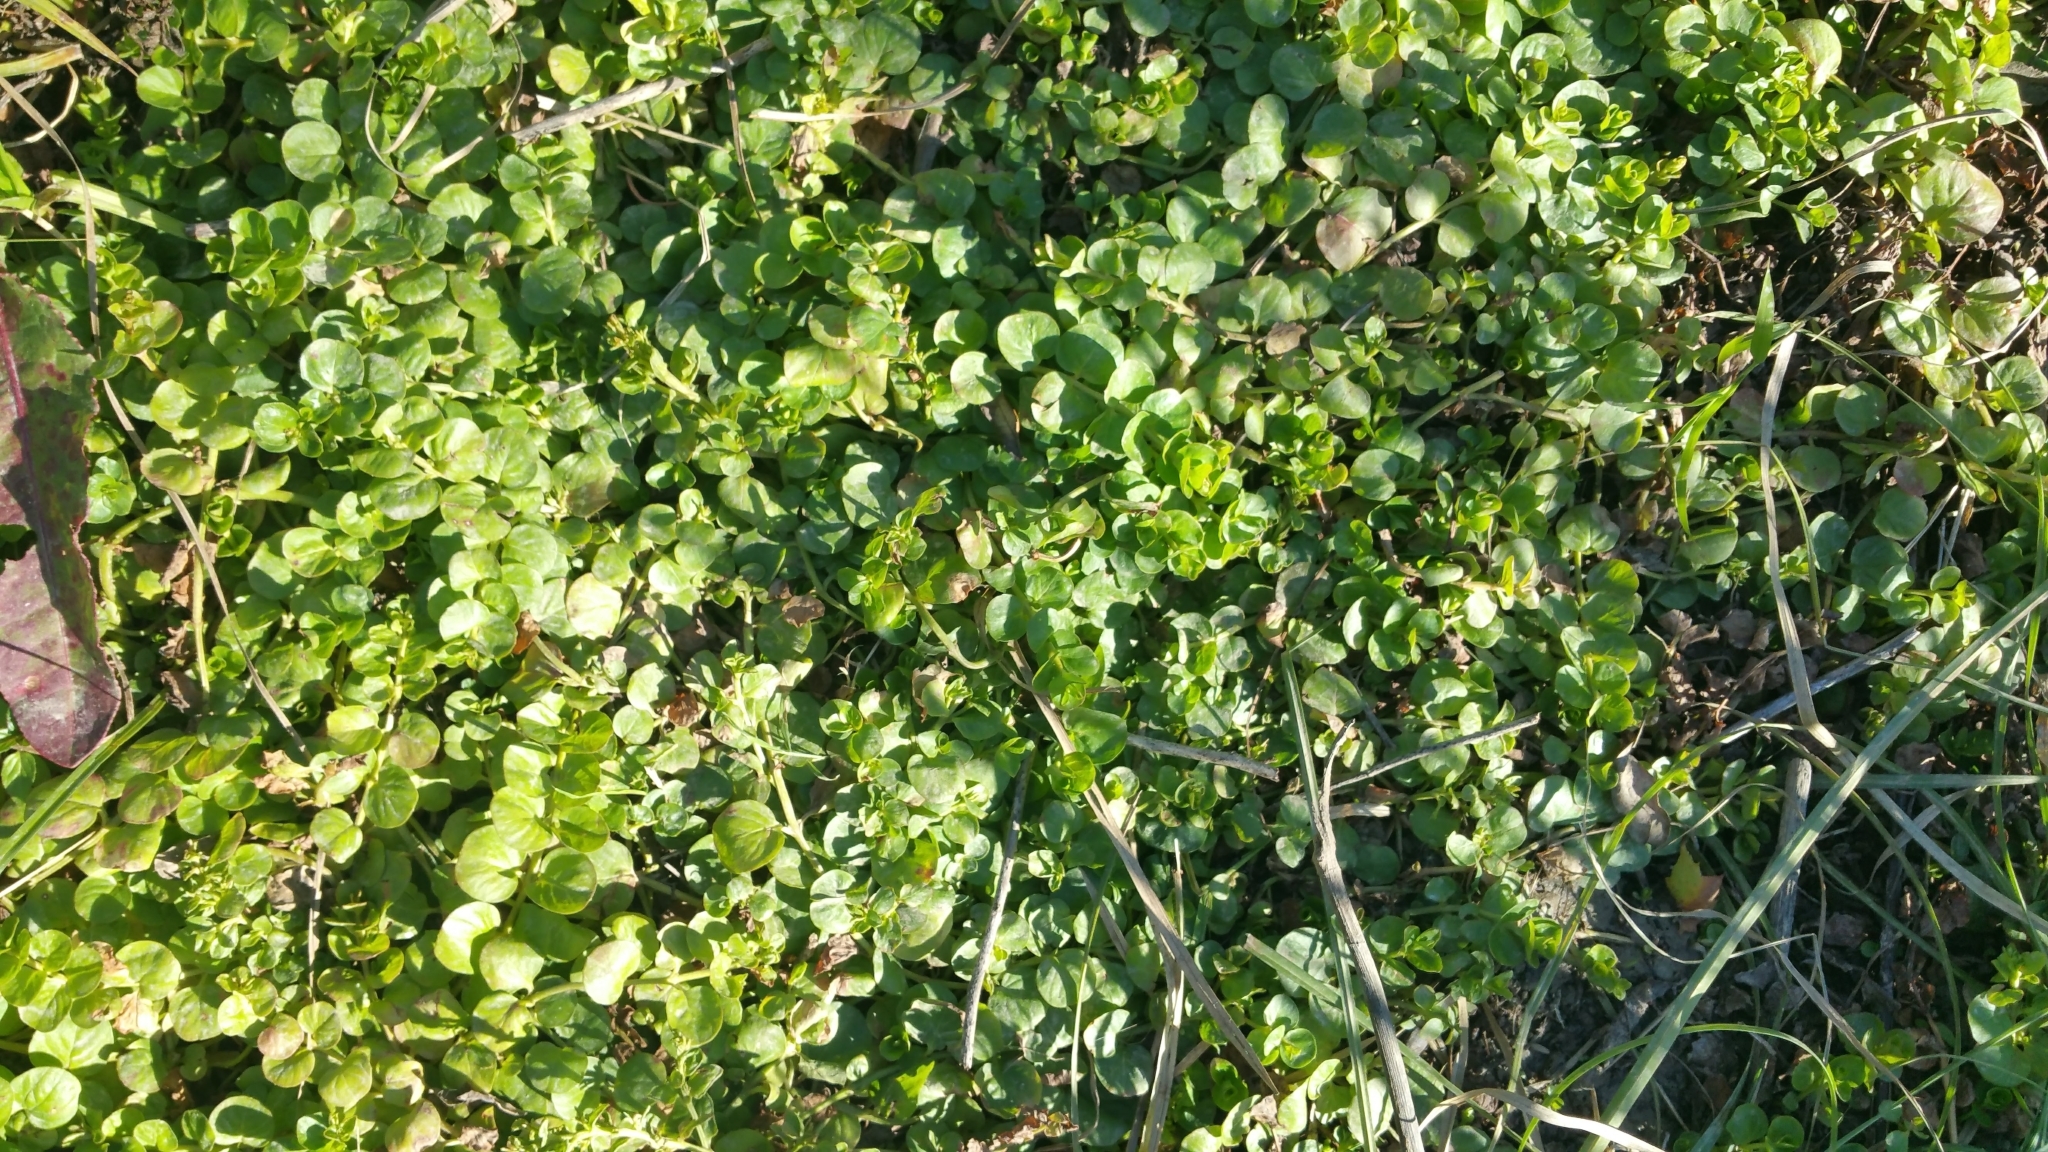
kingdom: Plantae
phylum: Tracheophyta
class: Magnoliopsida
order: Ericales
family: Primulaceae
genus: Lysimachia
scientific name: Lysimachia nummularia
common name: Moneywort
